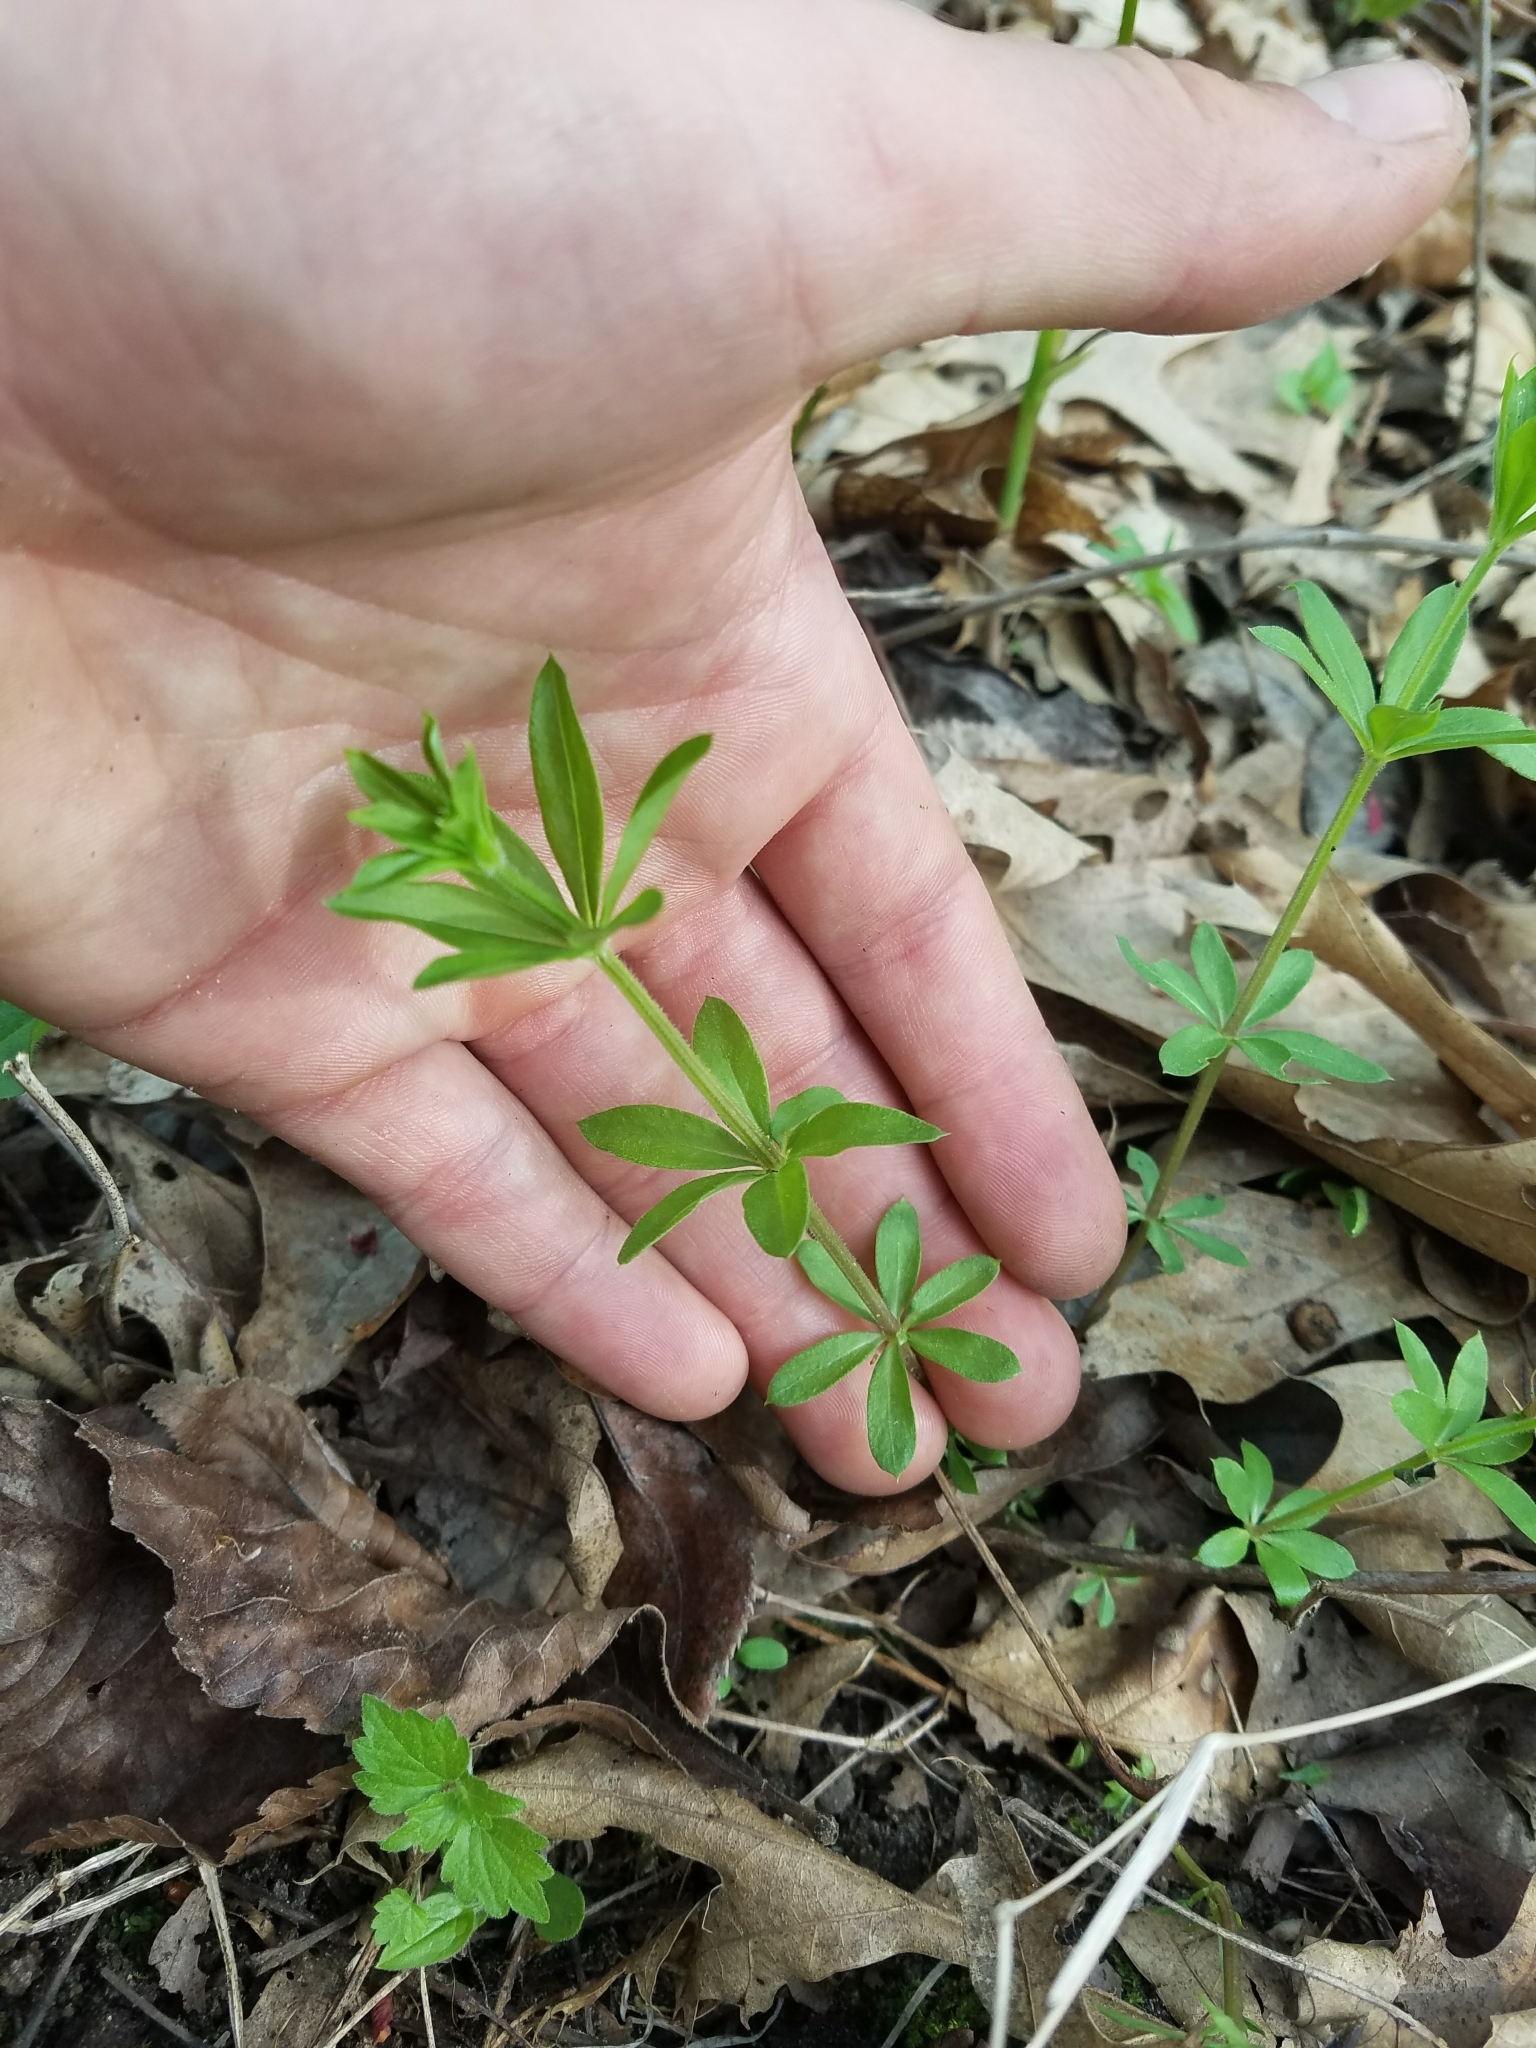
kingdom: Plantae
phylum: Tracheophyta
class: Magnoliopsida
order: Gentianales
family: Rubiaceae
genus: Galium
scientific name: Galium triflorum
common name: Fragrant bedstraw
